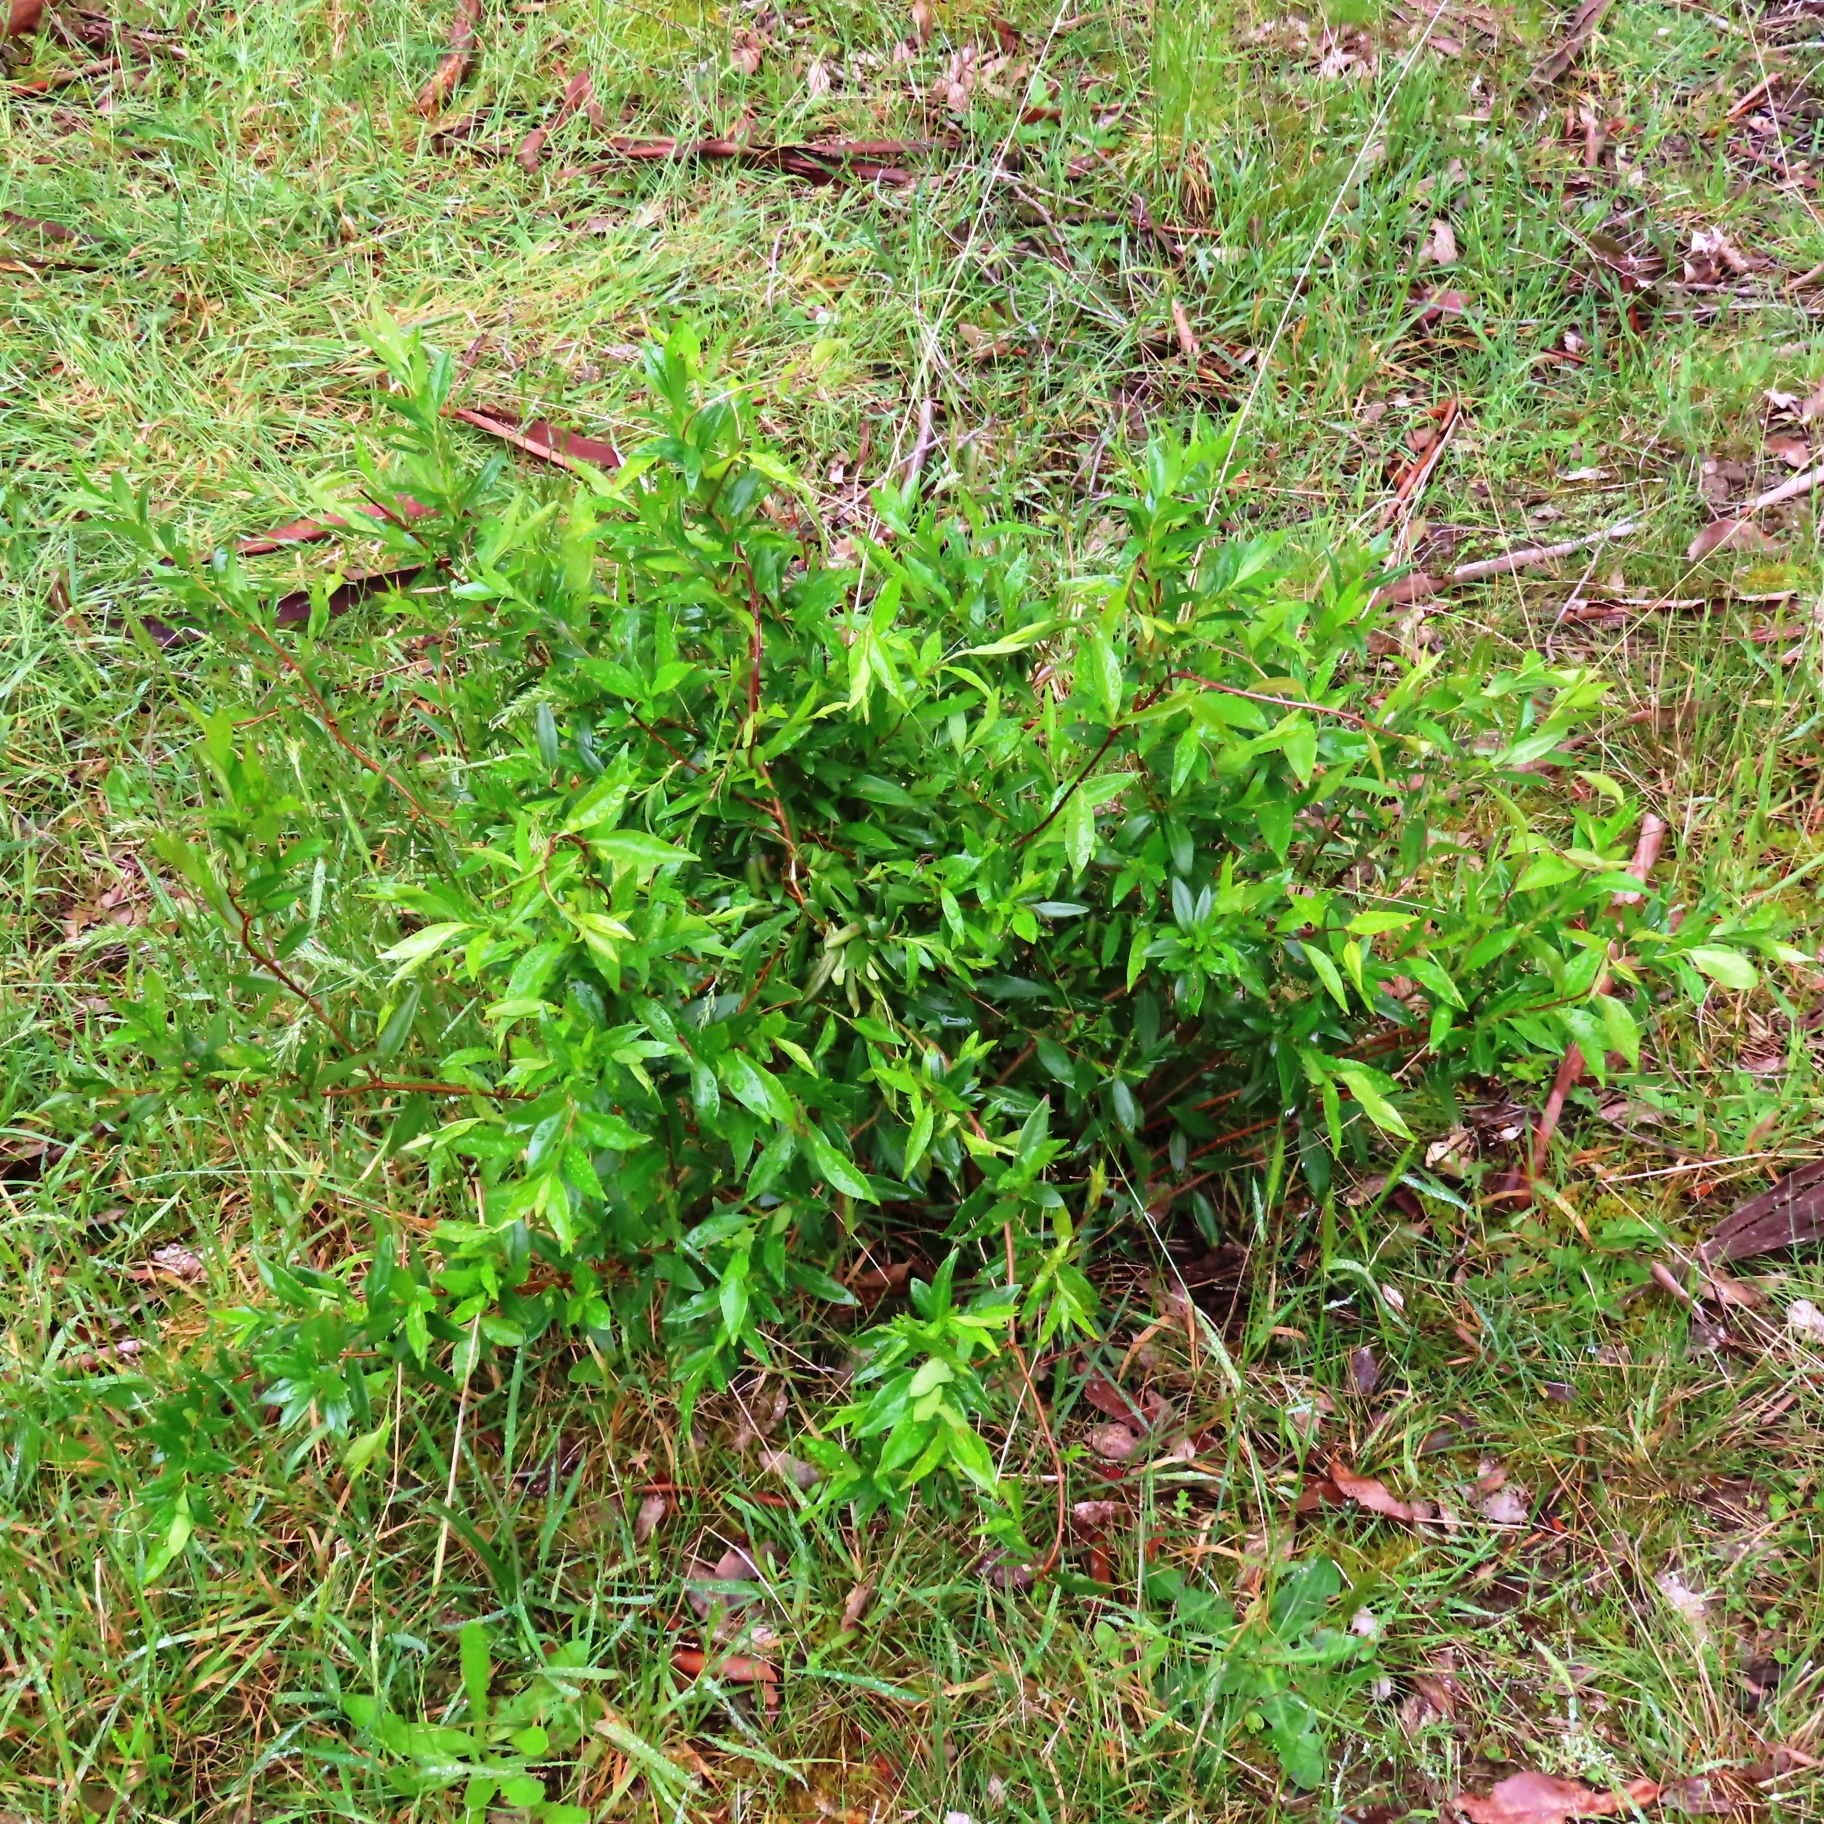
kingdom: Plantae
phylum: Tracheophyta
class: Magnoliopsida
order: Apiales
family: Pittosporaceae
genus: Billardiera
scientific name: Billardiera fusiformis
